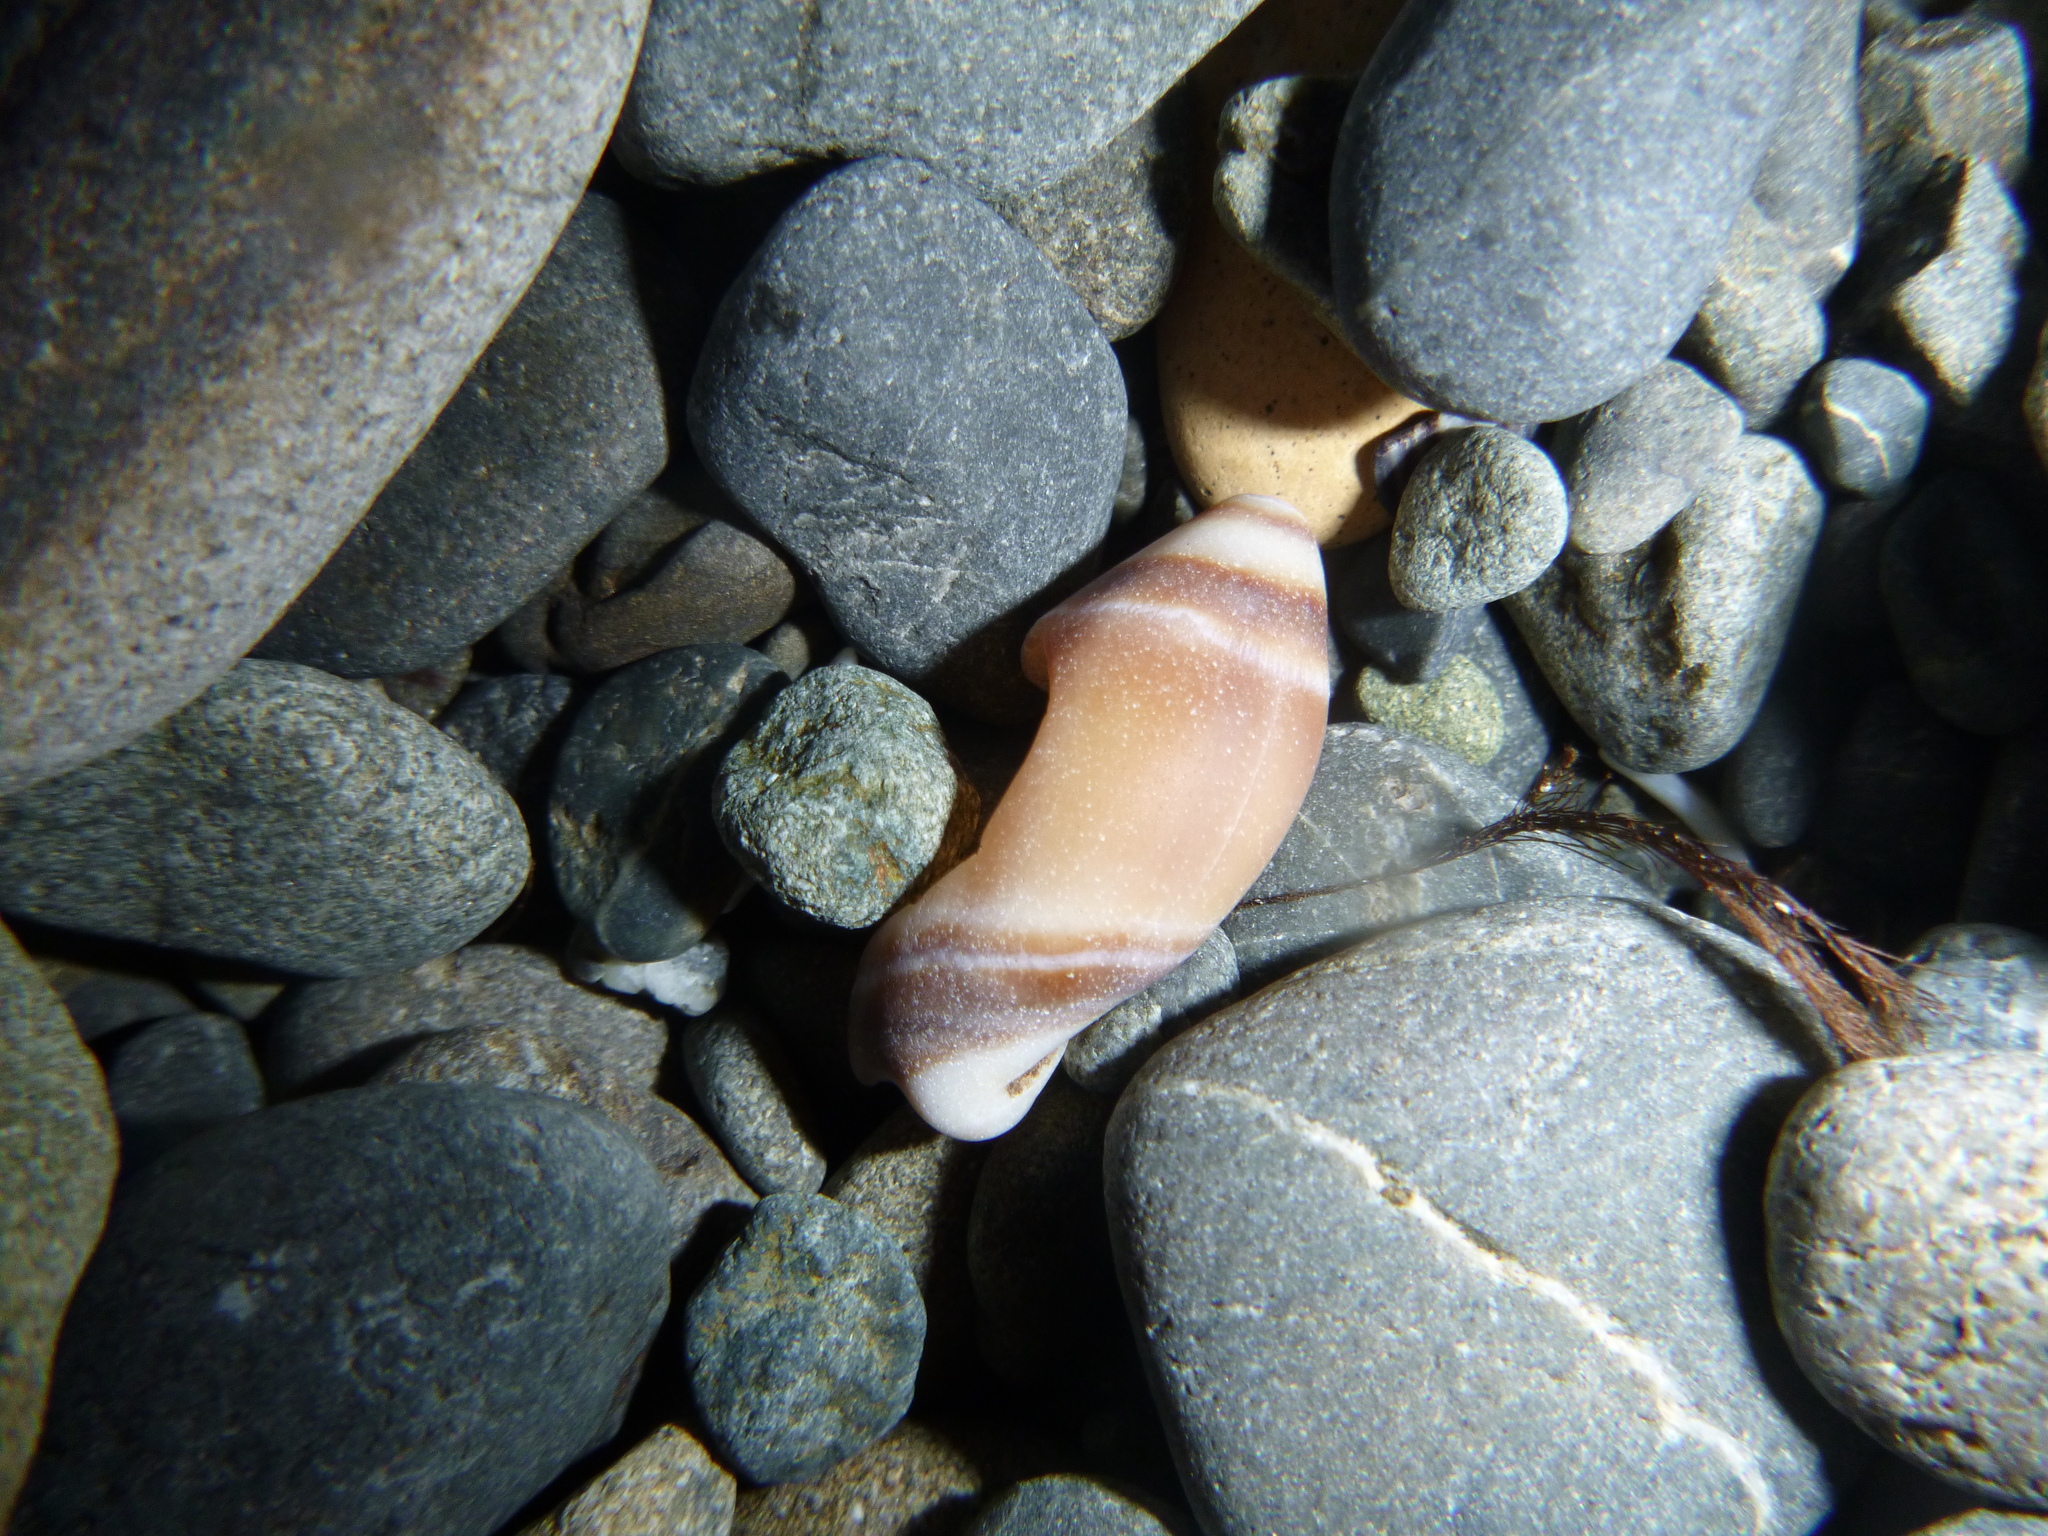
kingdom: Animalia
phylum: Mollusca
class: Gastropoda
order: Neogastropoda
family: Ancillariidae
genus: Amalda
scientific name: Amalda australis
